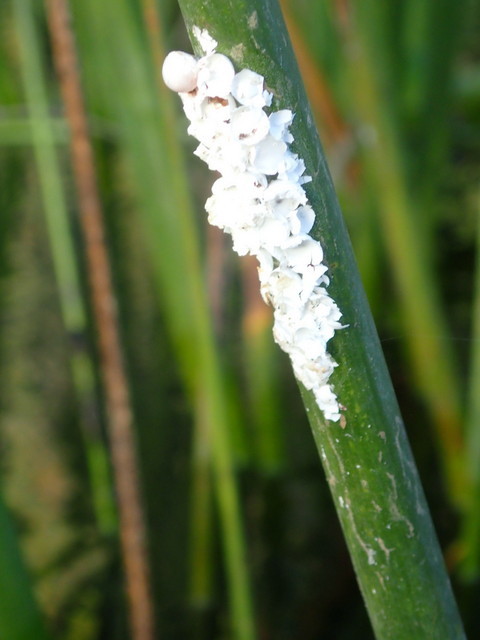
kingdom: Animalia
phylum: Mollusca
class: Gastropoda
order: Architaenioglossa
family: Ampullariidae
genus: Pomacea
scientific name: Pomacea paludosa
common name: Florida applesnail
